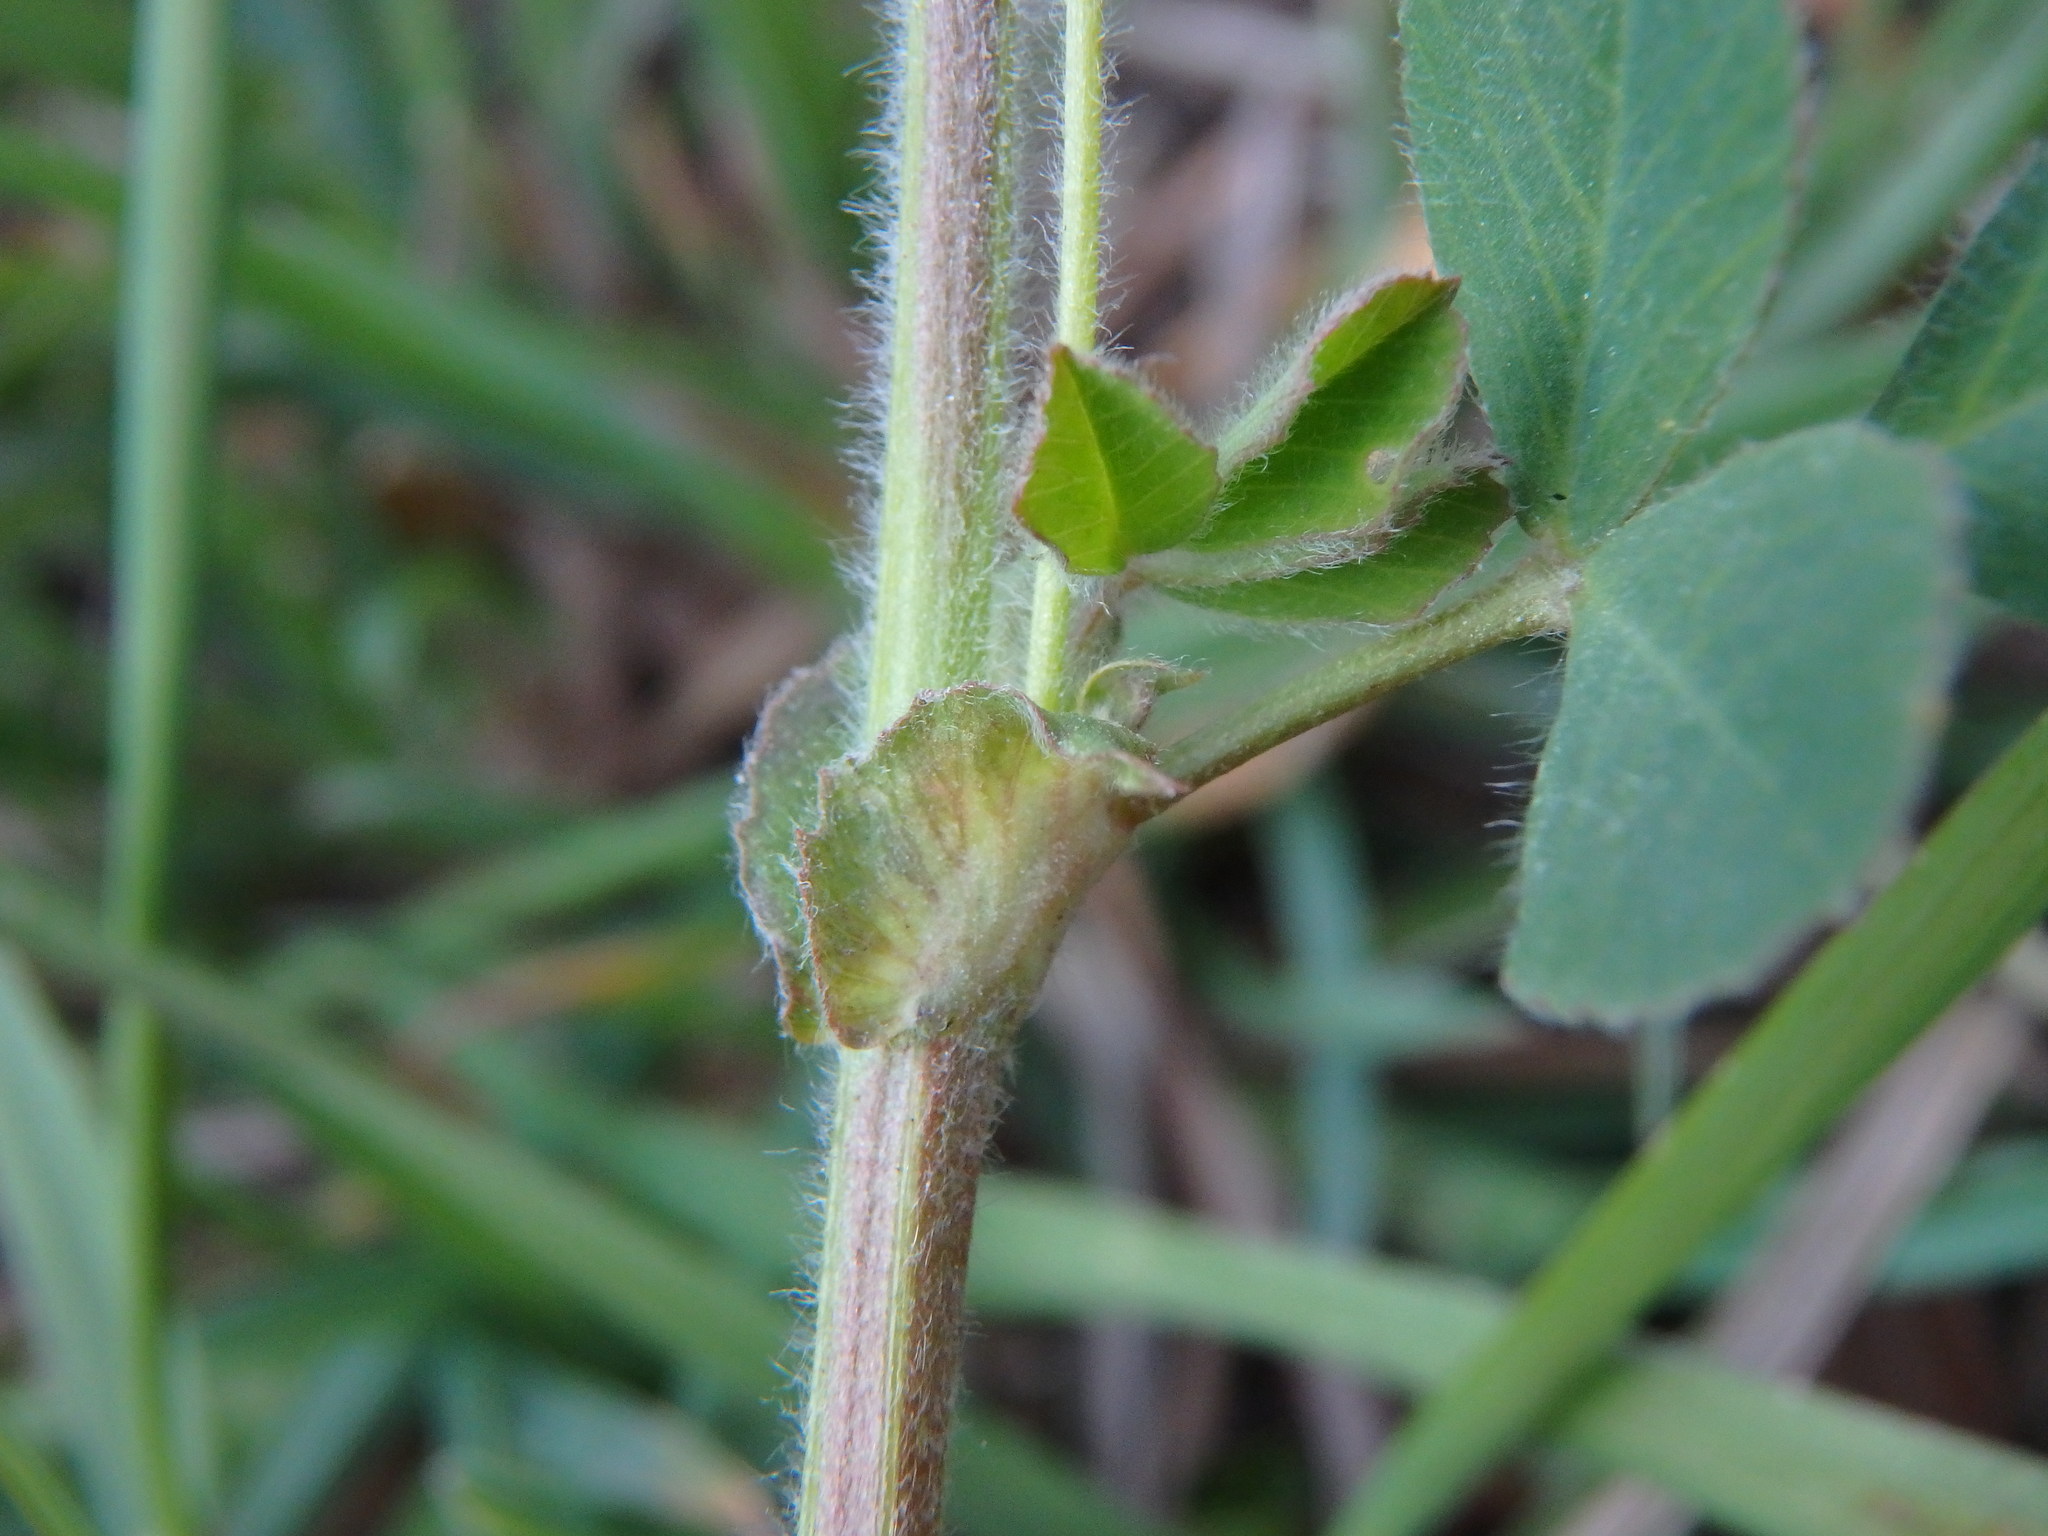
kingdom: Plantae
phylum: Tracheophyta
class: Magnoliopsida
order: Fabales
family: Fabaceae
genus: Medicago
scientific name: Medicago lupulina
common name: Black medick
